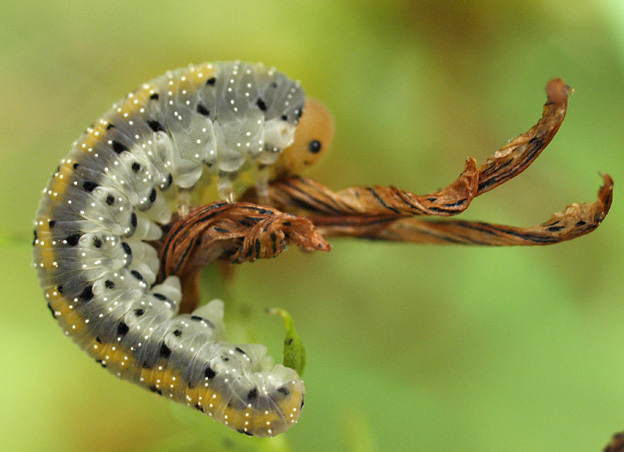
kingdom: Animalia
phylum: Arthropoda
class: Insecta
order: Hymenoptera
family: Tenthredinidae
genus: Tenthredo
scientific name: Tenthredo amoena
